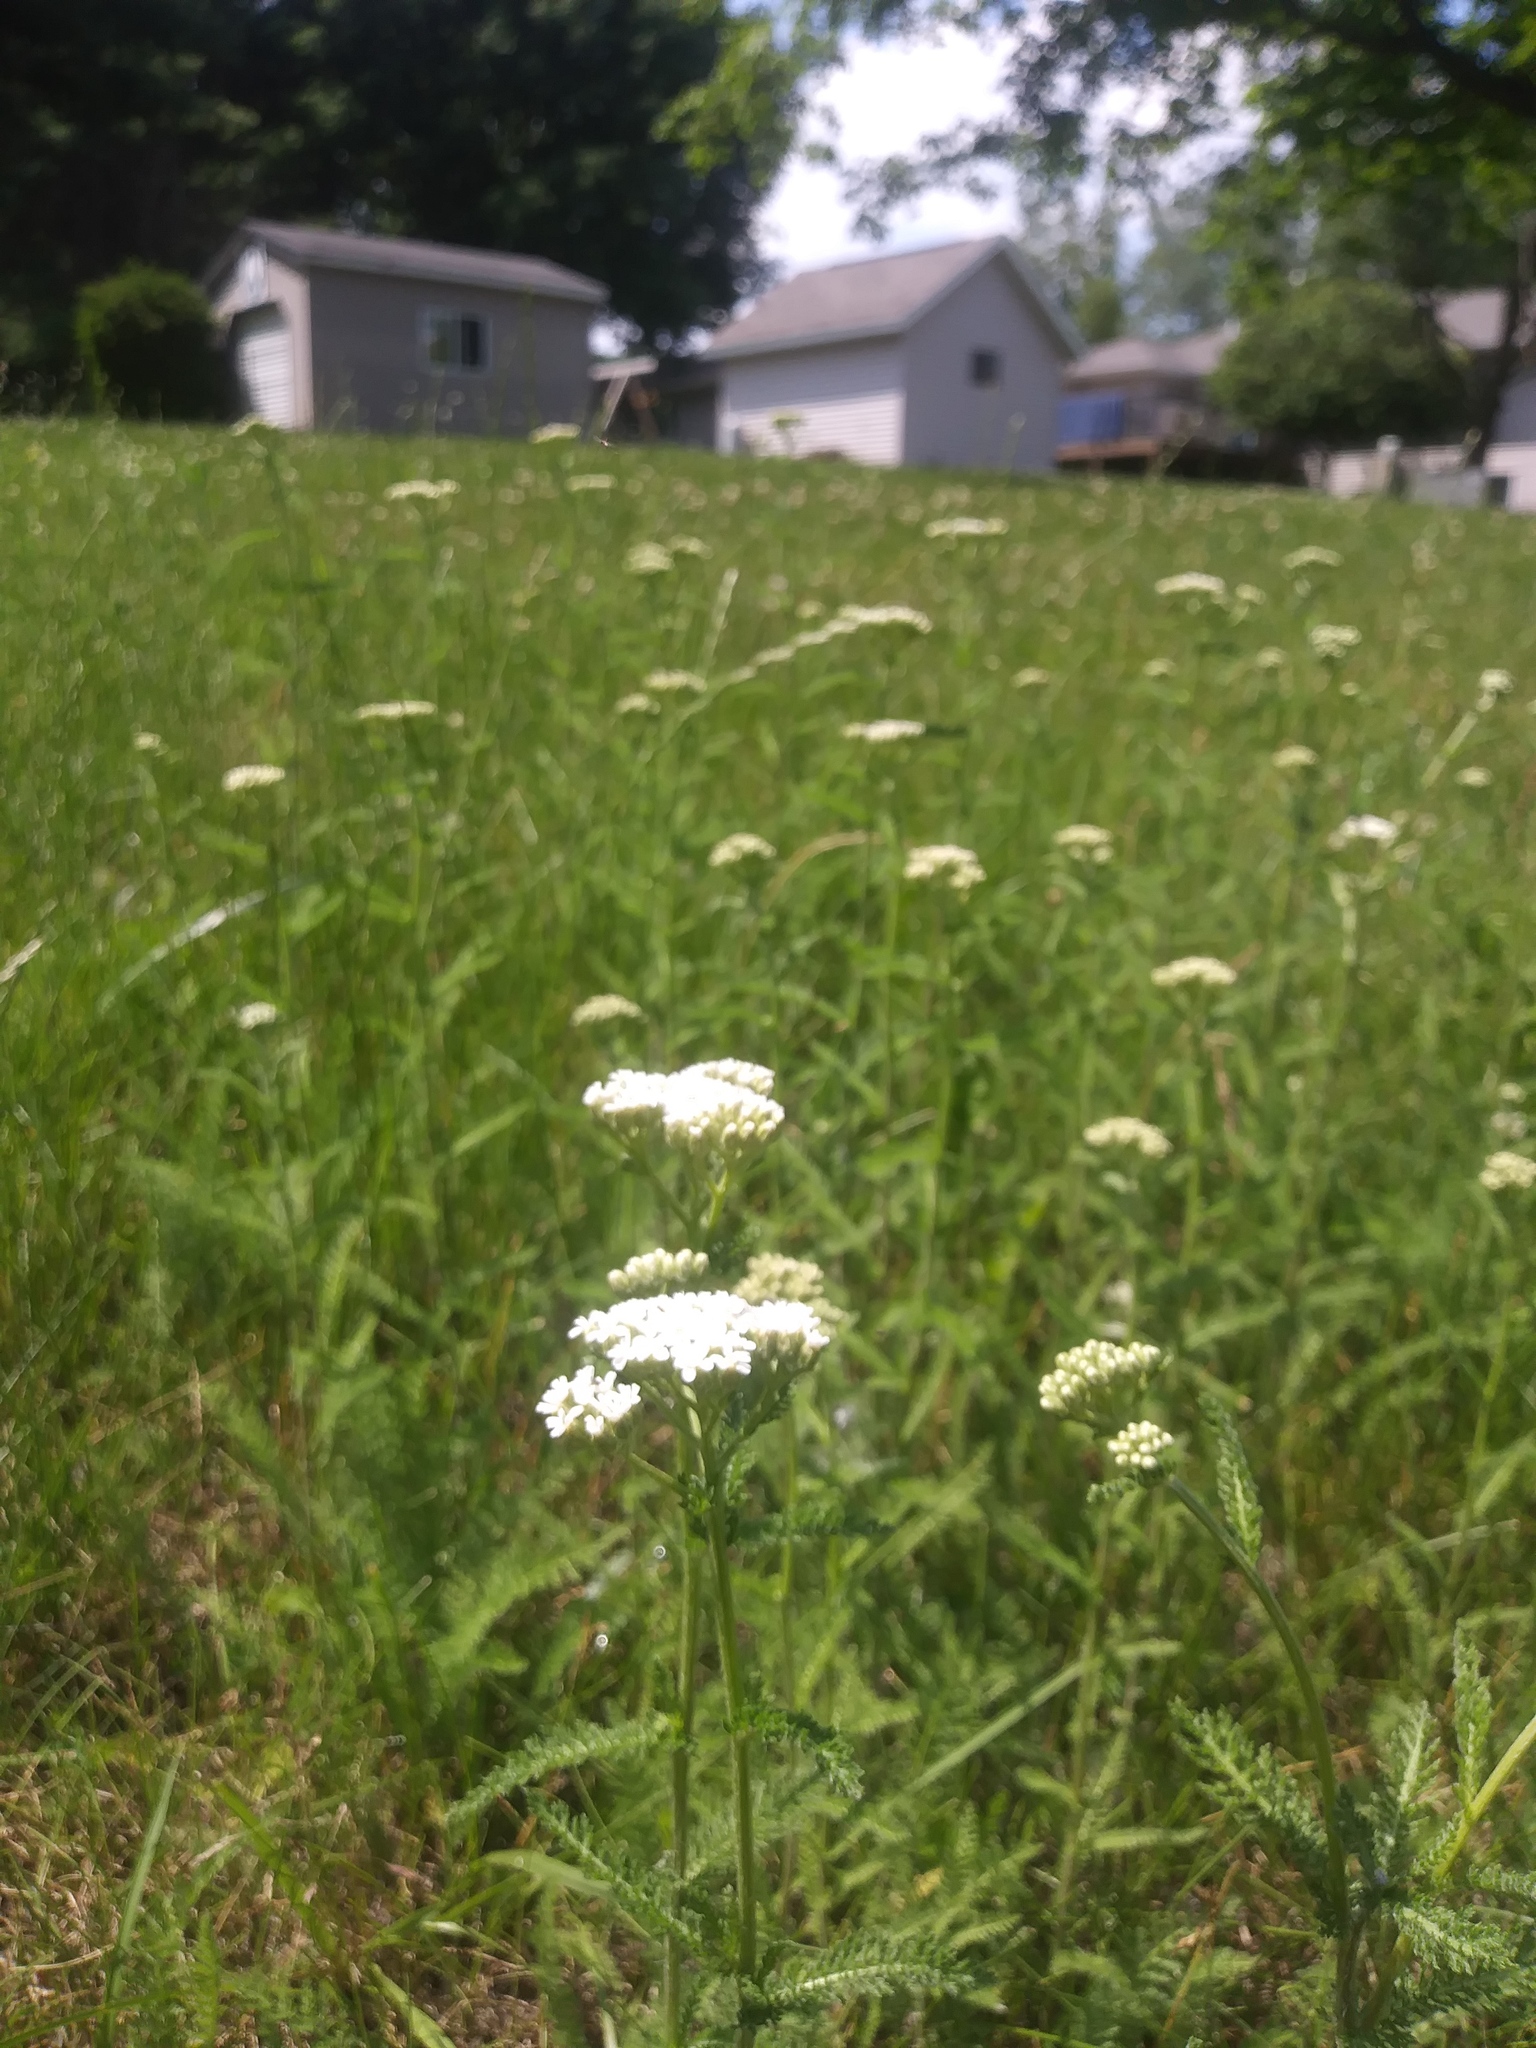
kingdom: Plantae
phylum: Tracheophyta
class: Magnoliopsida
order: Asterales
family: Asteraceae
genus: Achillea
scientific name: Achillea millefolium
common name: Yarrow
